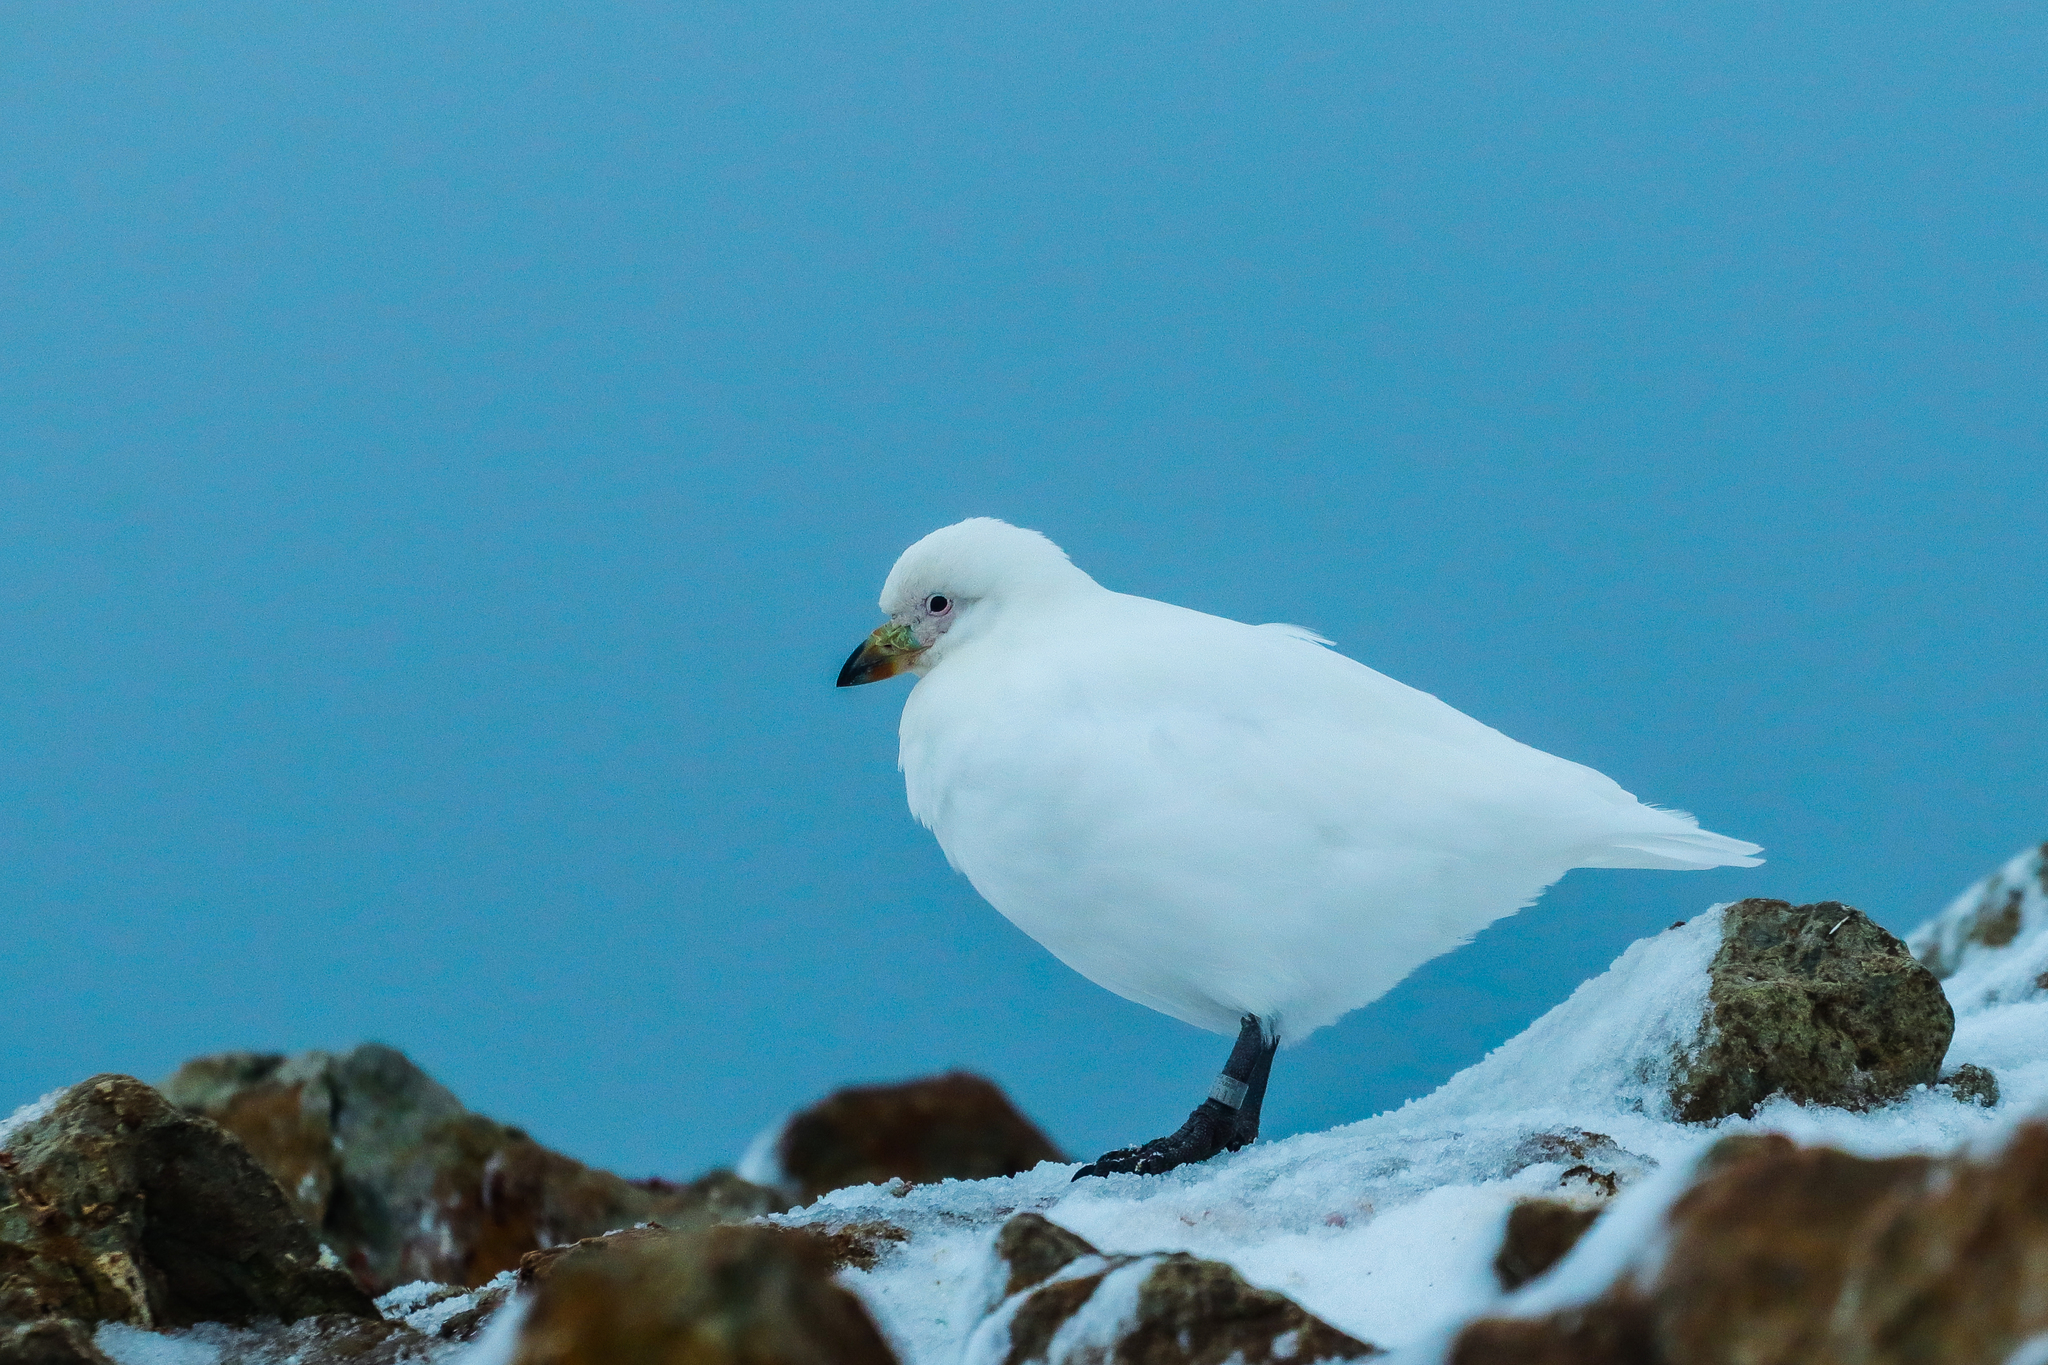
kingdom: Animalia
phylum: Chordata
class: Aves
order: Charadriiformes
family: Chionidae
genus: Chionis
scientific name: Chionis albus
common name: Snowy sheathbill
